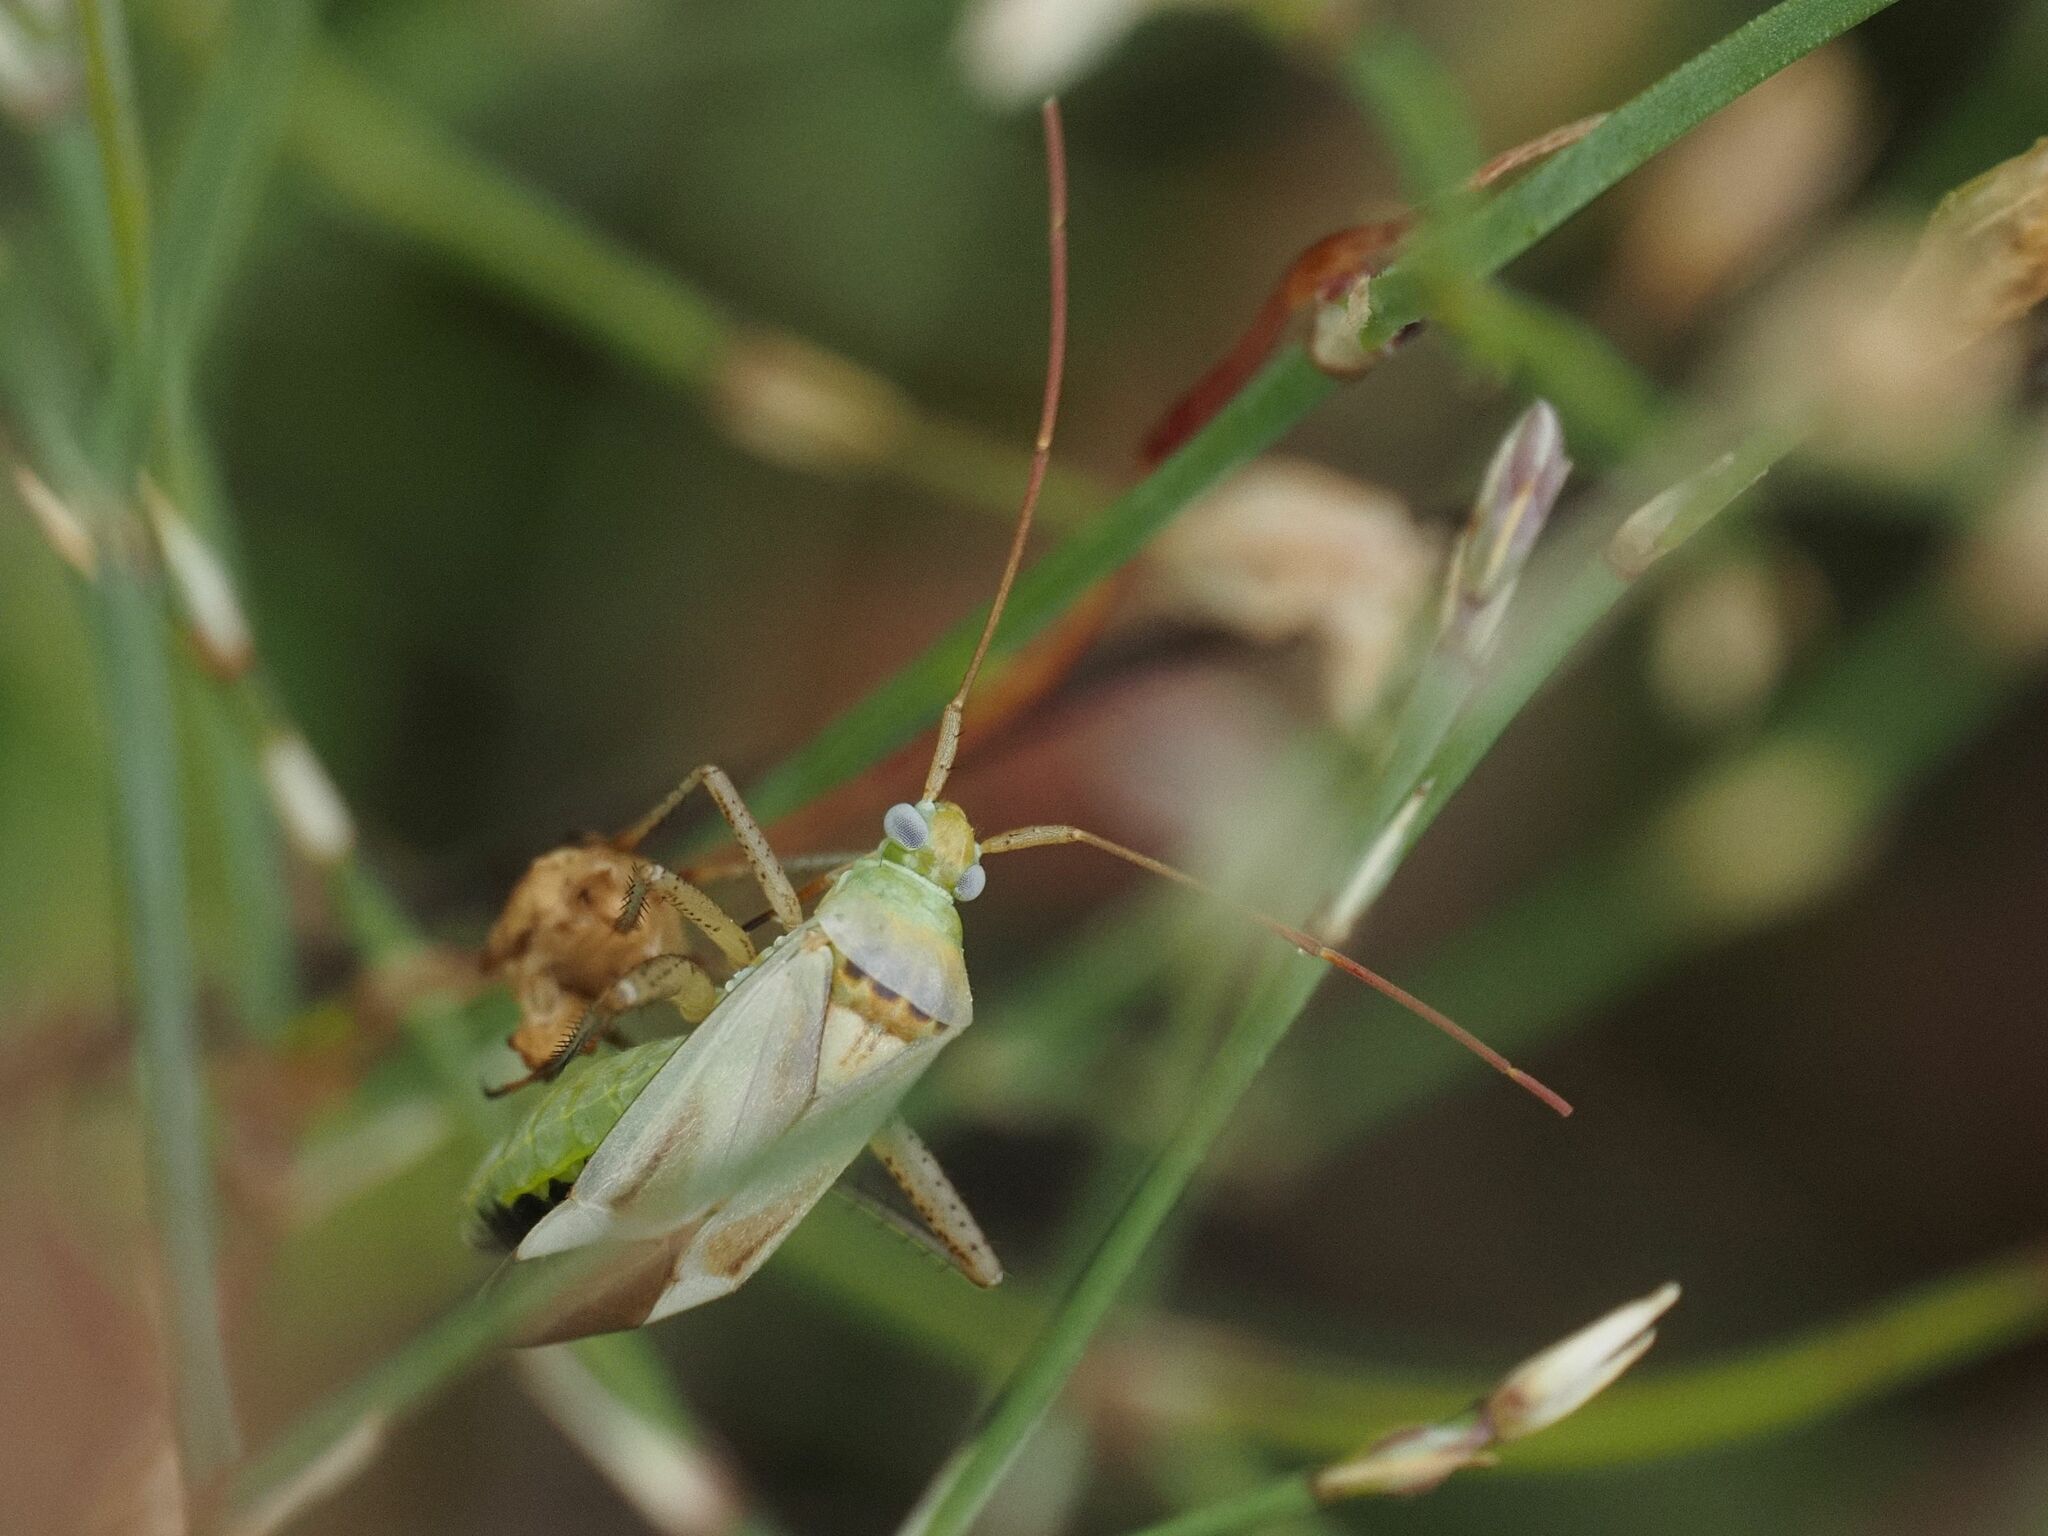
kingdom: Animalia
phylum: Arthropoda
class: Insecta
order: Hemiptera
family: Miridae
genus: Adelphocoris
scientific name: Adelphocoris lineolatus
